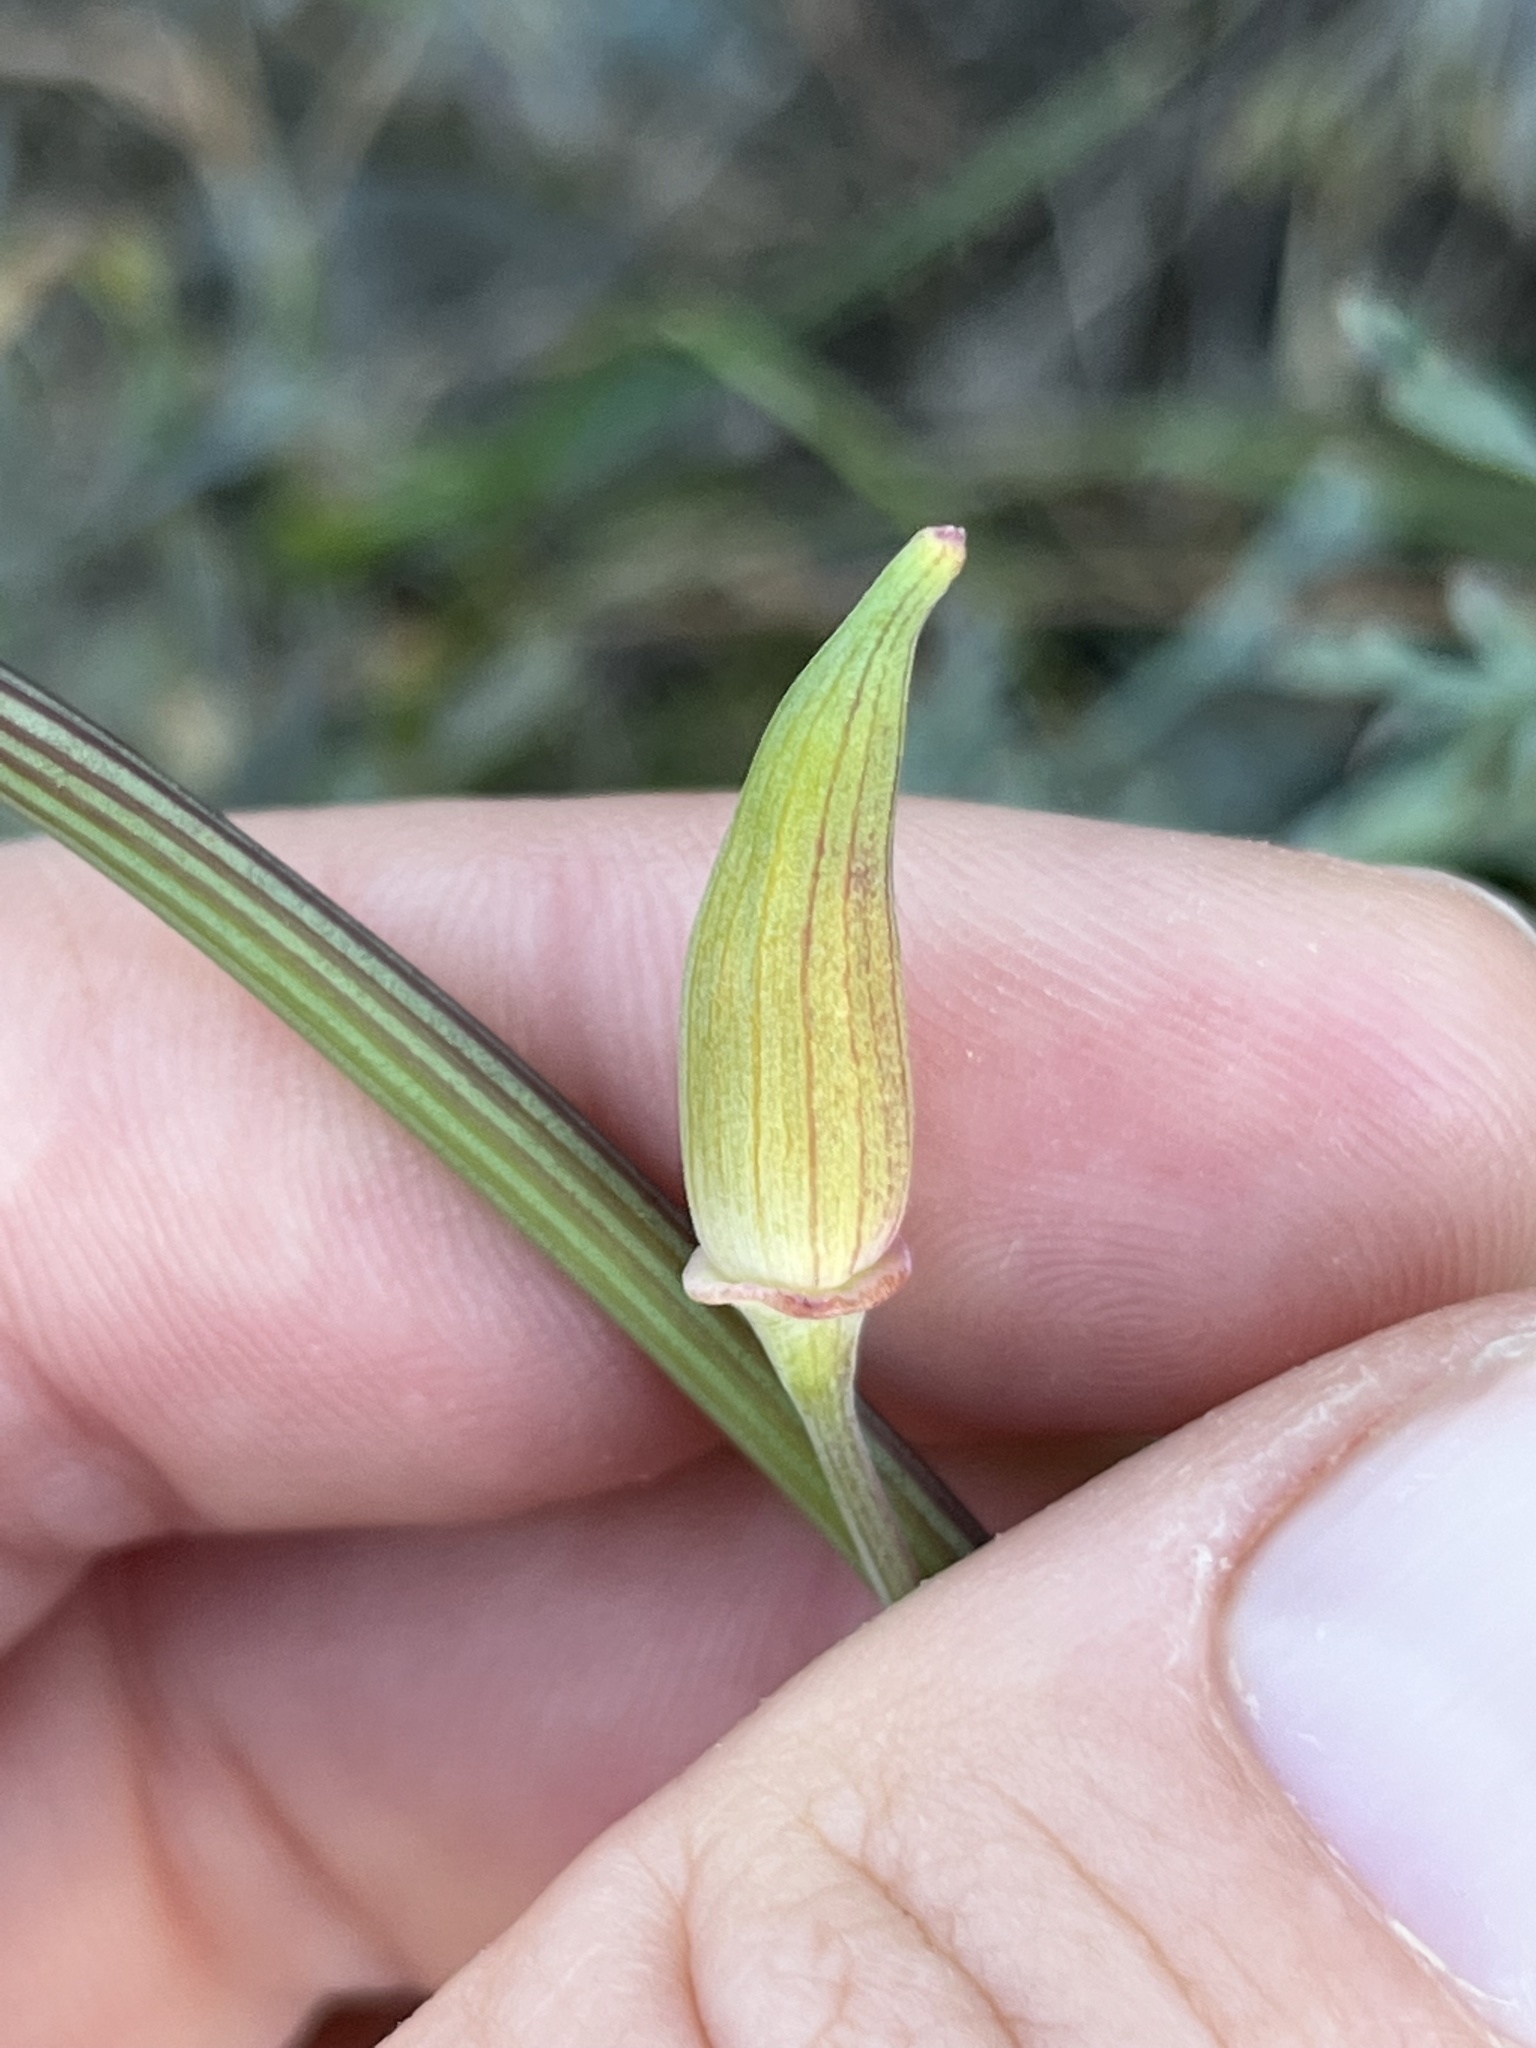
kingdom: Plantae
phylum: Tracheophyta
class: Magnoliopsida
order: Ranunculales
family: Papaveraceae
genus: Eschscholzia
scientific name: Eschscholzia californica
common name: California poppy
